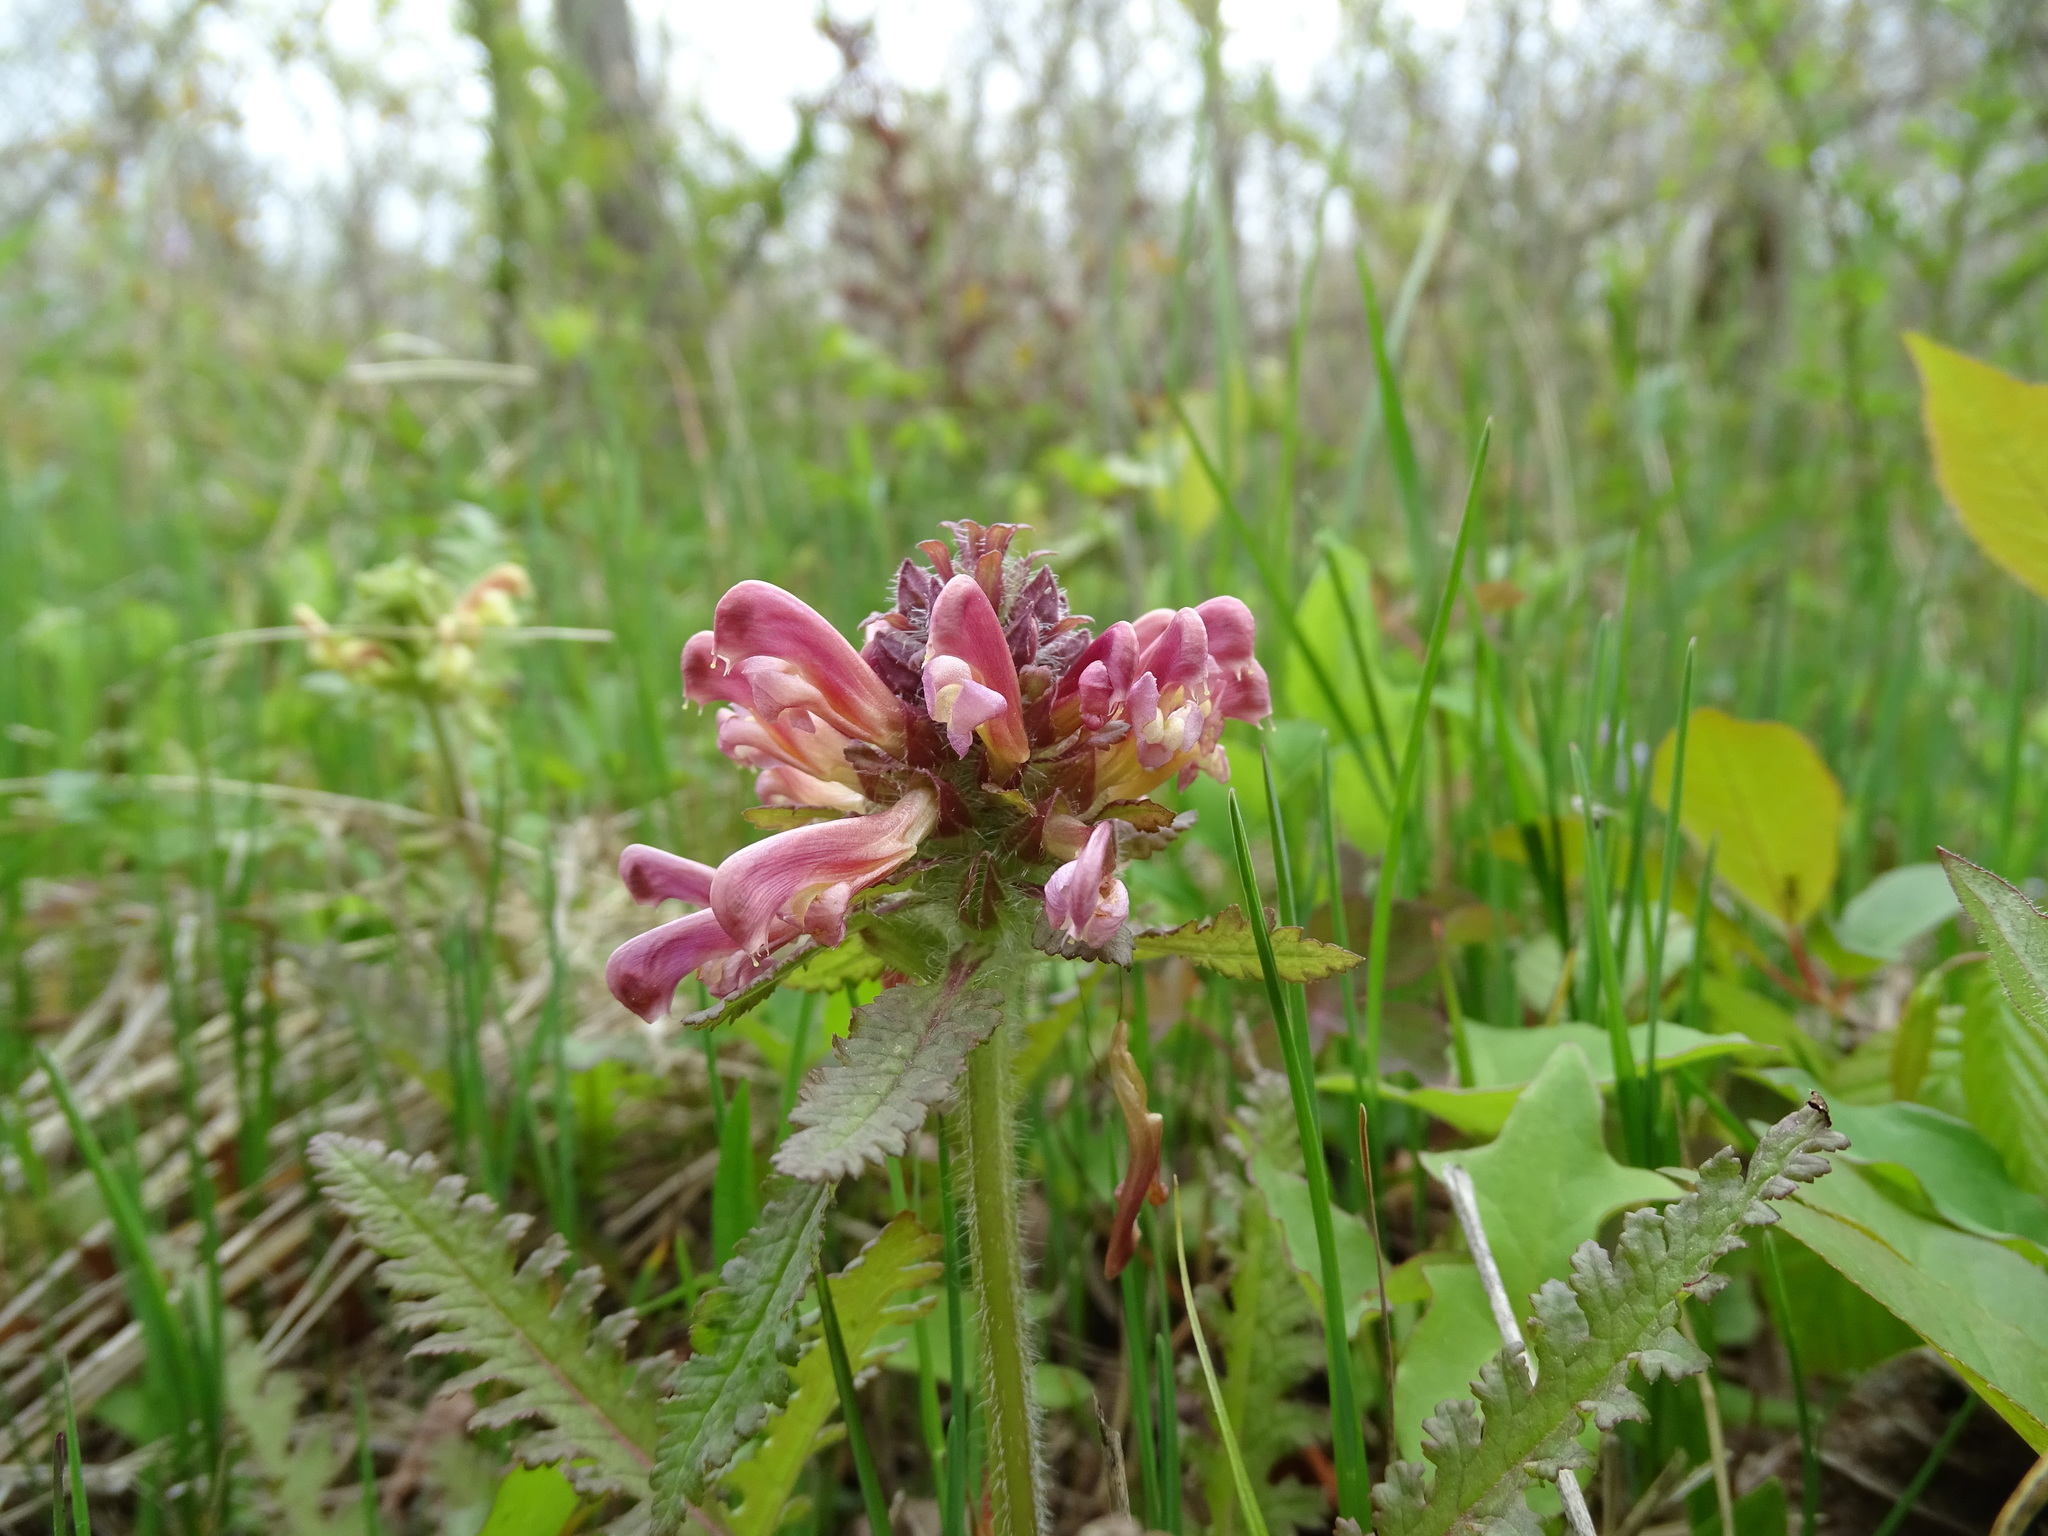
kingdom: Plantae
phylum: Tracheophyta
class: Magnoliopsida
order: Lamiales
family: Orobanchaceae
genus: Pedicularis
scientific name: Pedicularis canadensis
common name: Early lousewort
